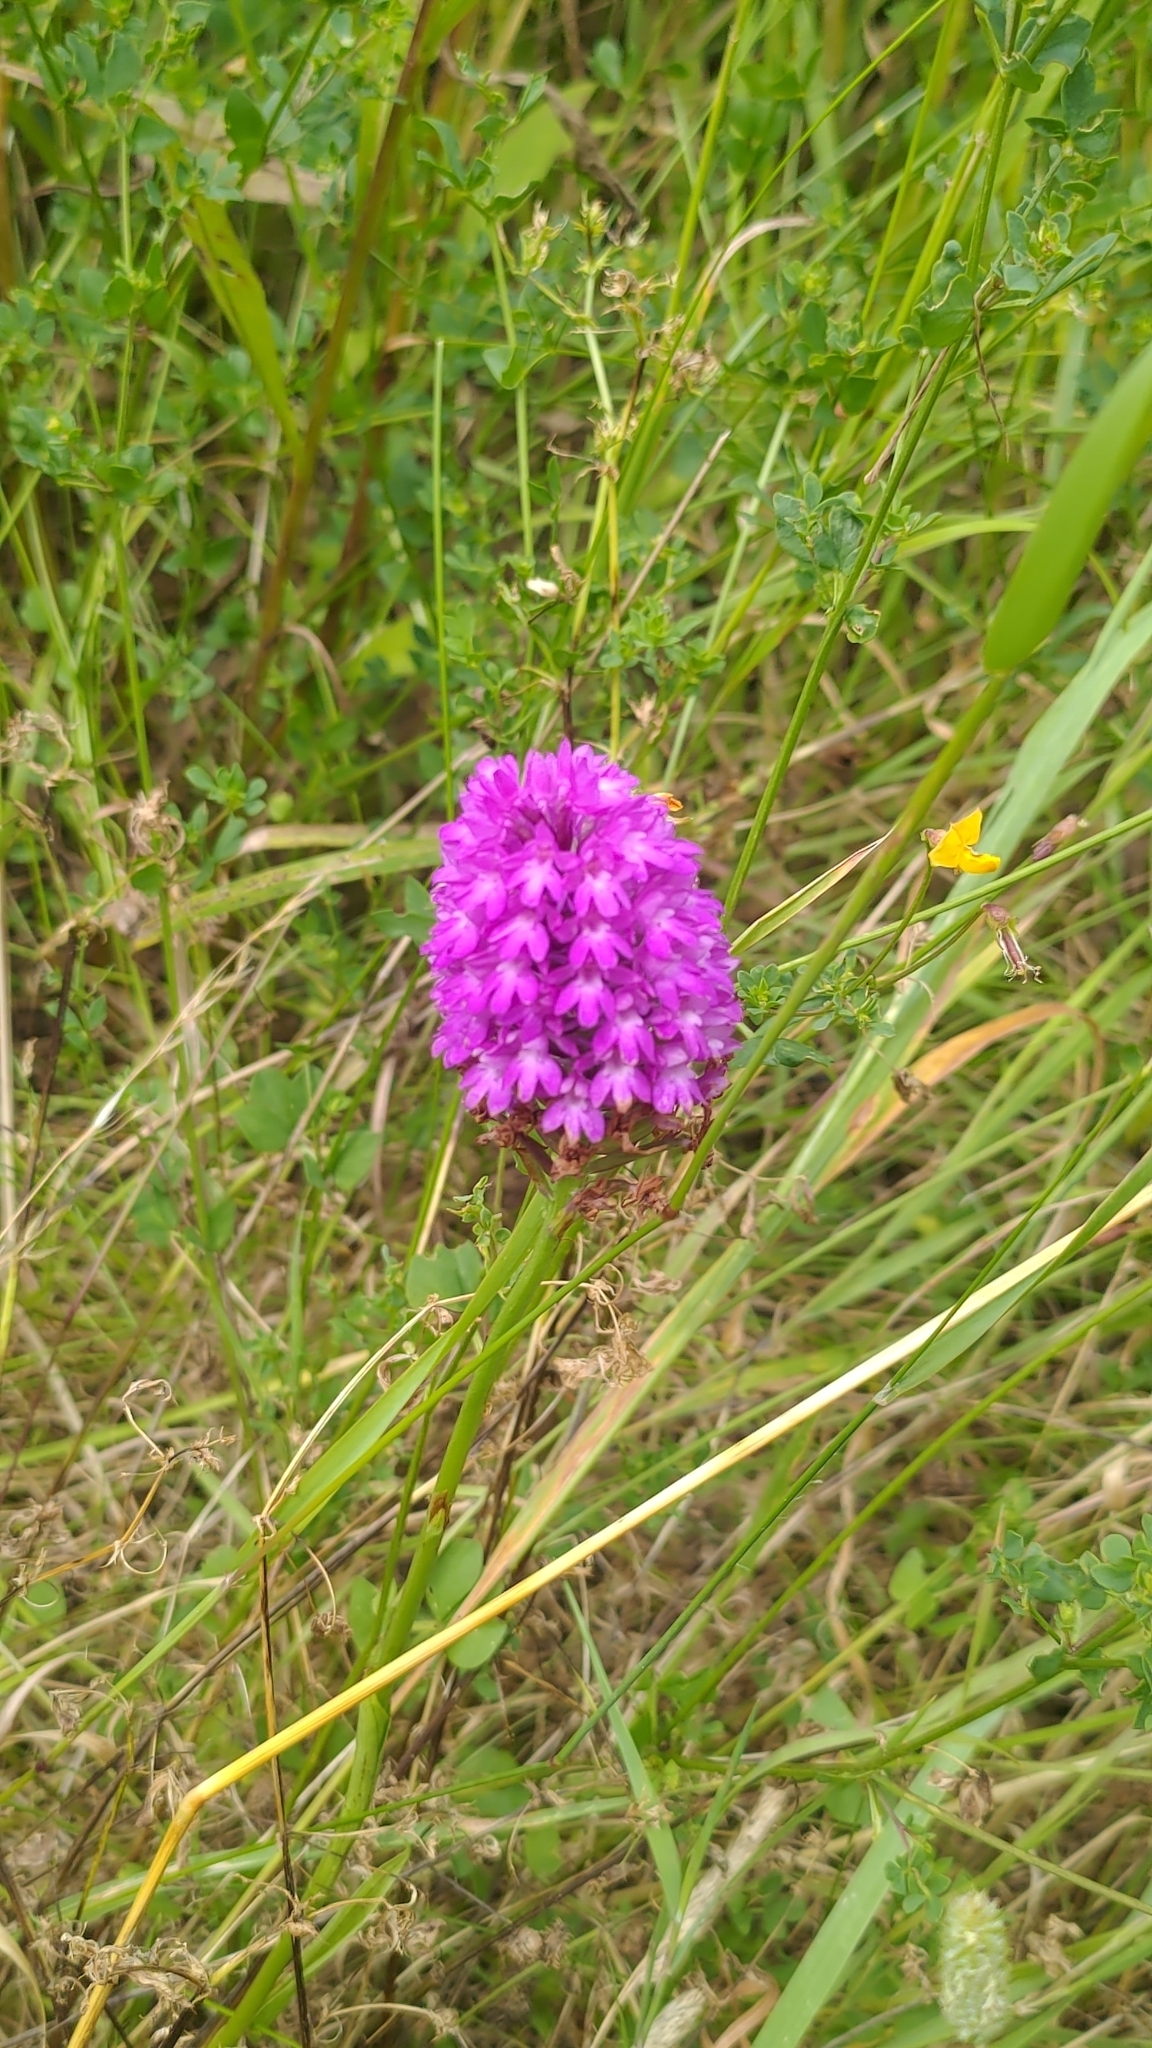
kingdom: Plantae
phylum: Tracheophyta
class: Liliopsida
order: Asparagales
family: Orchidaceae
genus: Anacamptis
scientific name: Anacamptis pyramidalis
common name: Pyramidal orchid
